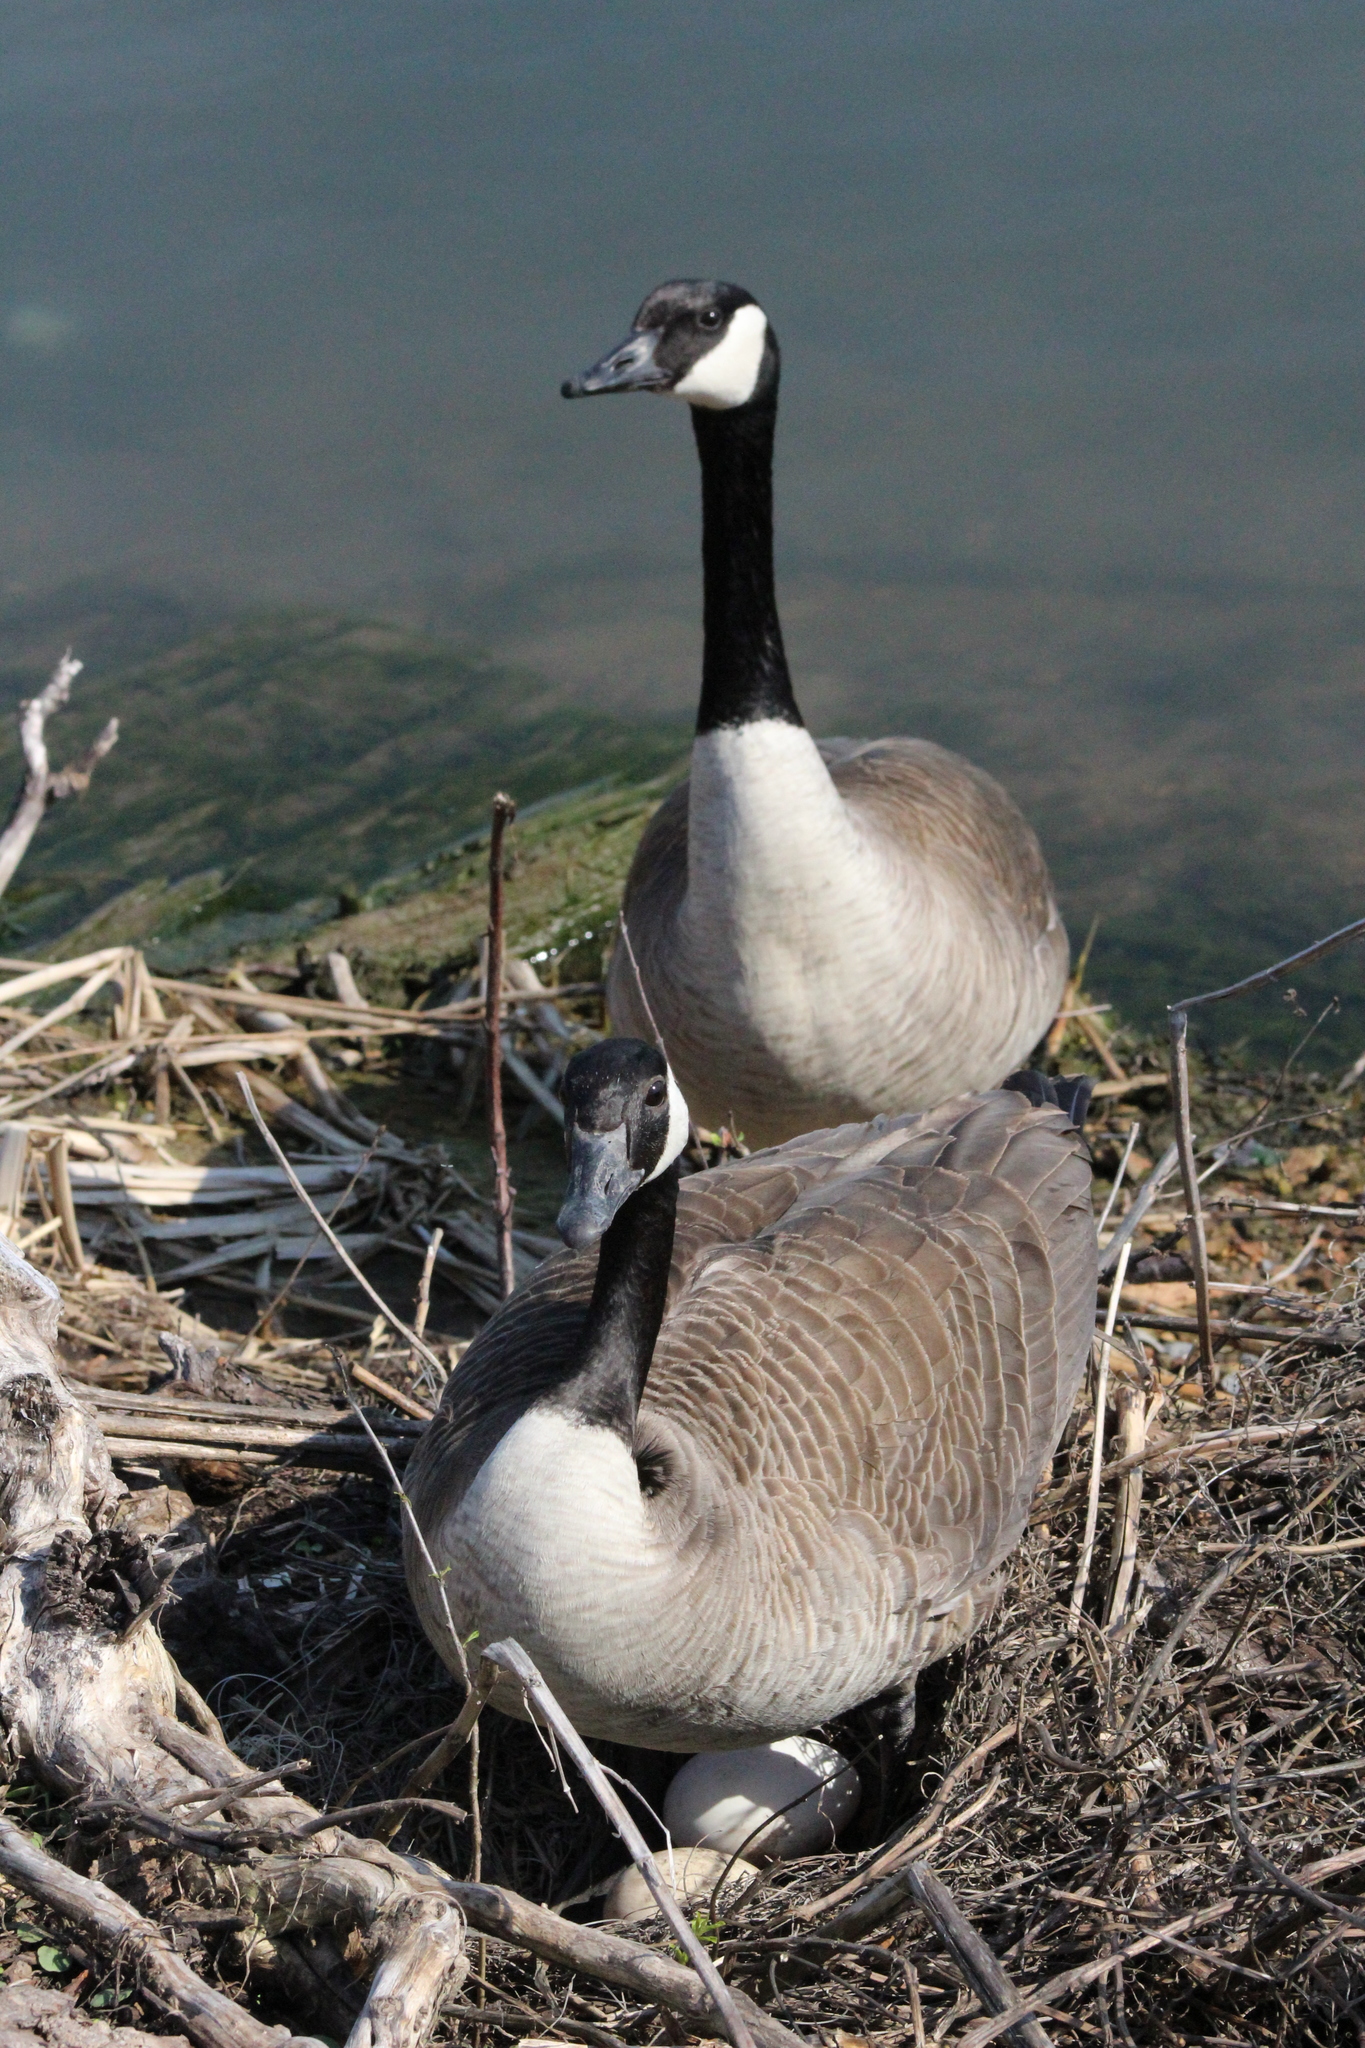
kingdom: Animalia
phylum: Chordata
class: Aves
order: Anseriformes
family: Anatidae
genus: Branta
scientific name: Branta canadensis
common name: Canada goose
